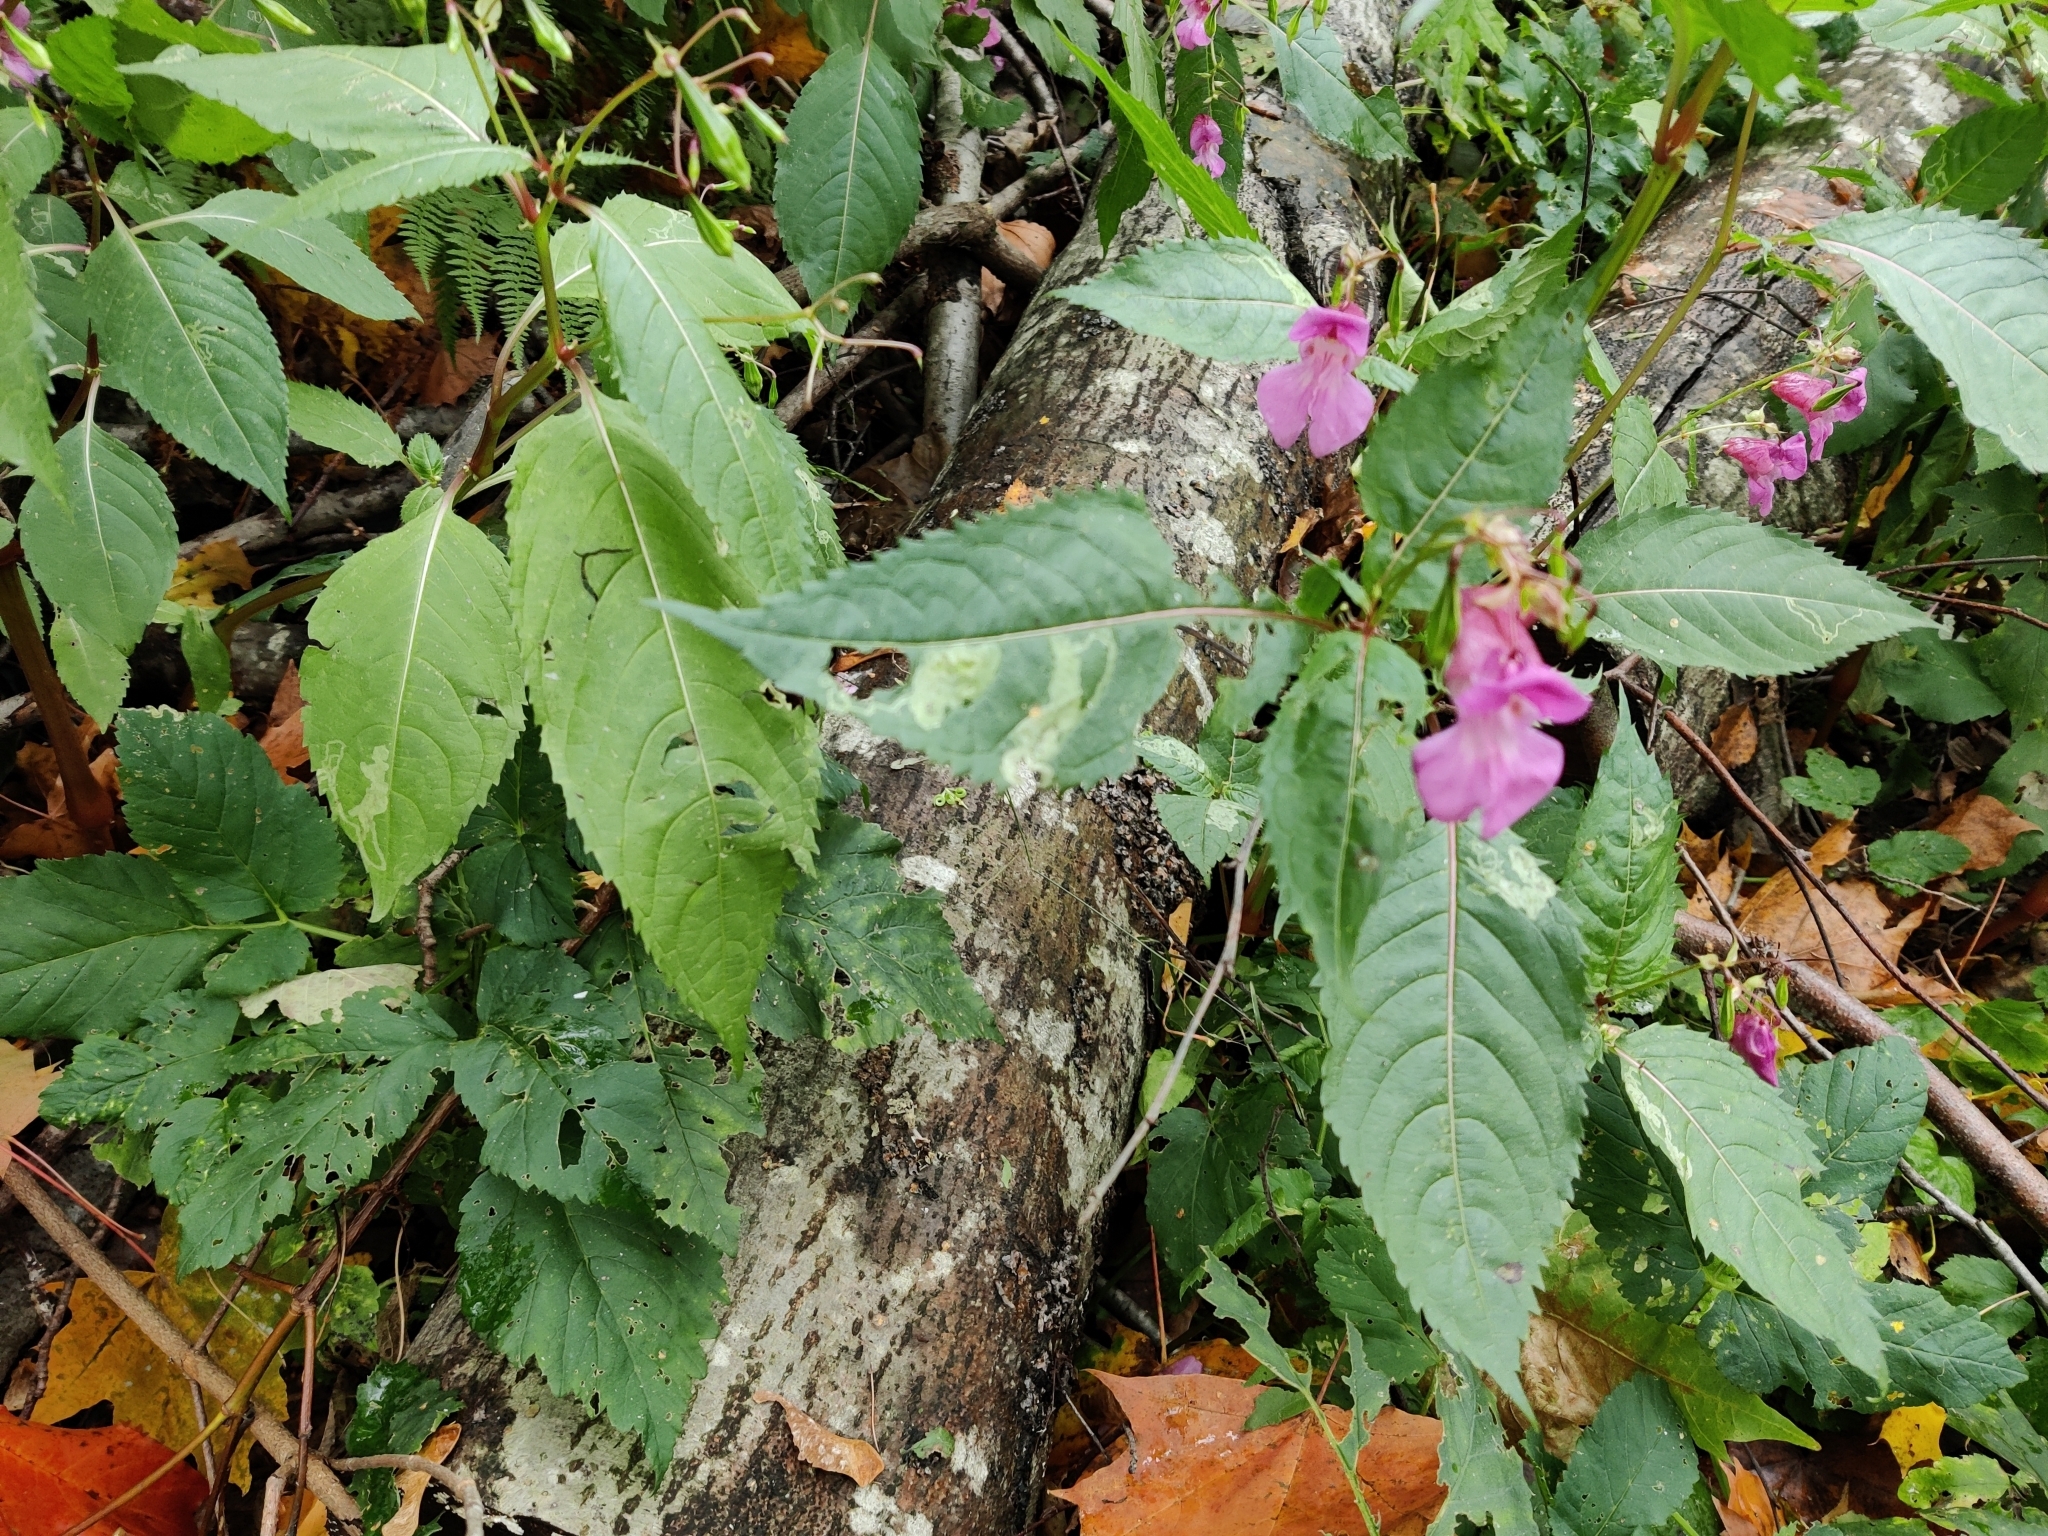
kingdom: Plantae
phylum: Tracheophyta
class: Magnoliopsida
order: Ericales
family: Balsaminaceae
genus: Impatiens
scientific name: Impatiens glandulifera
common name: Himalayan balsam
